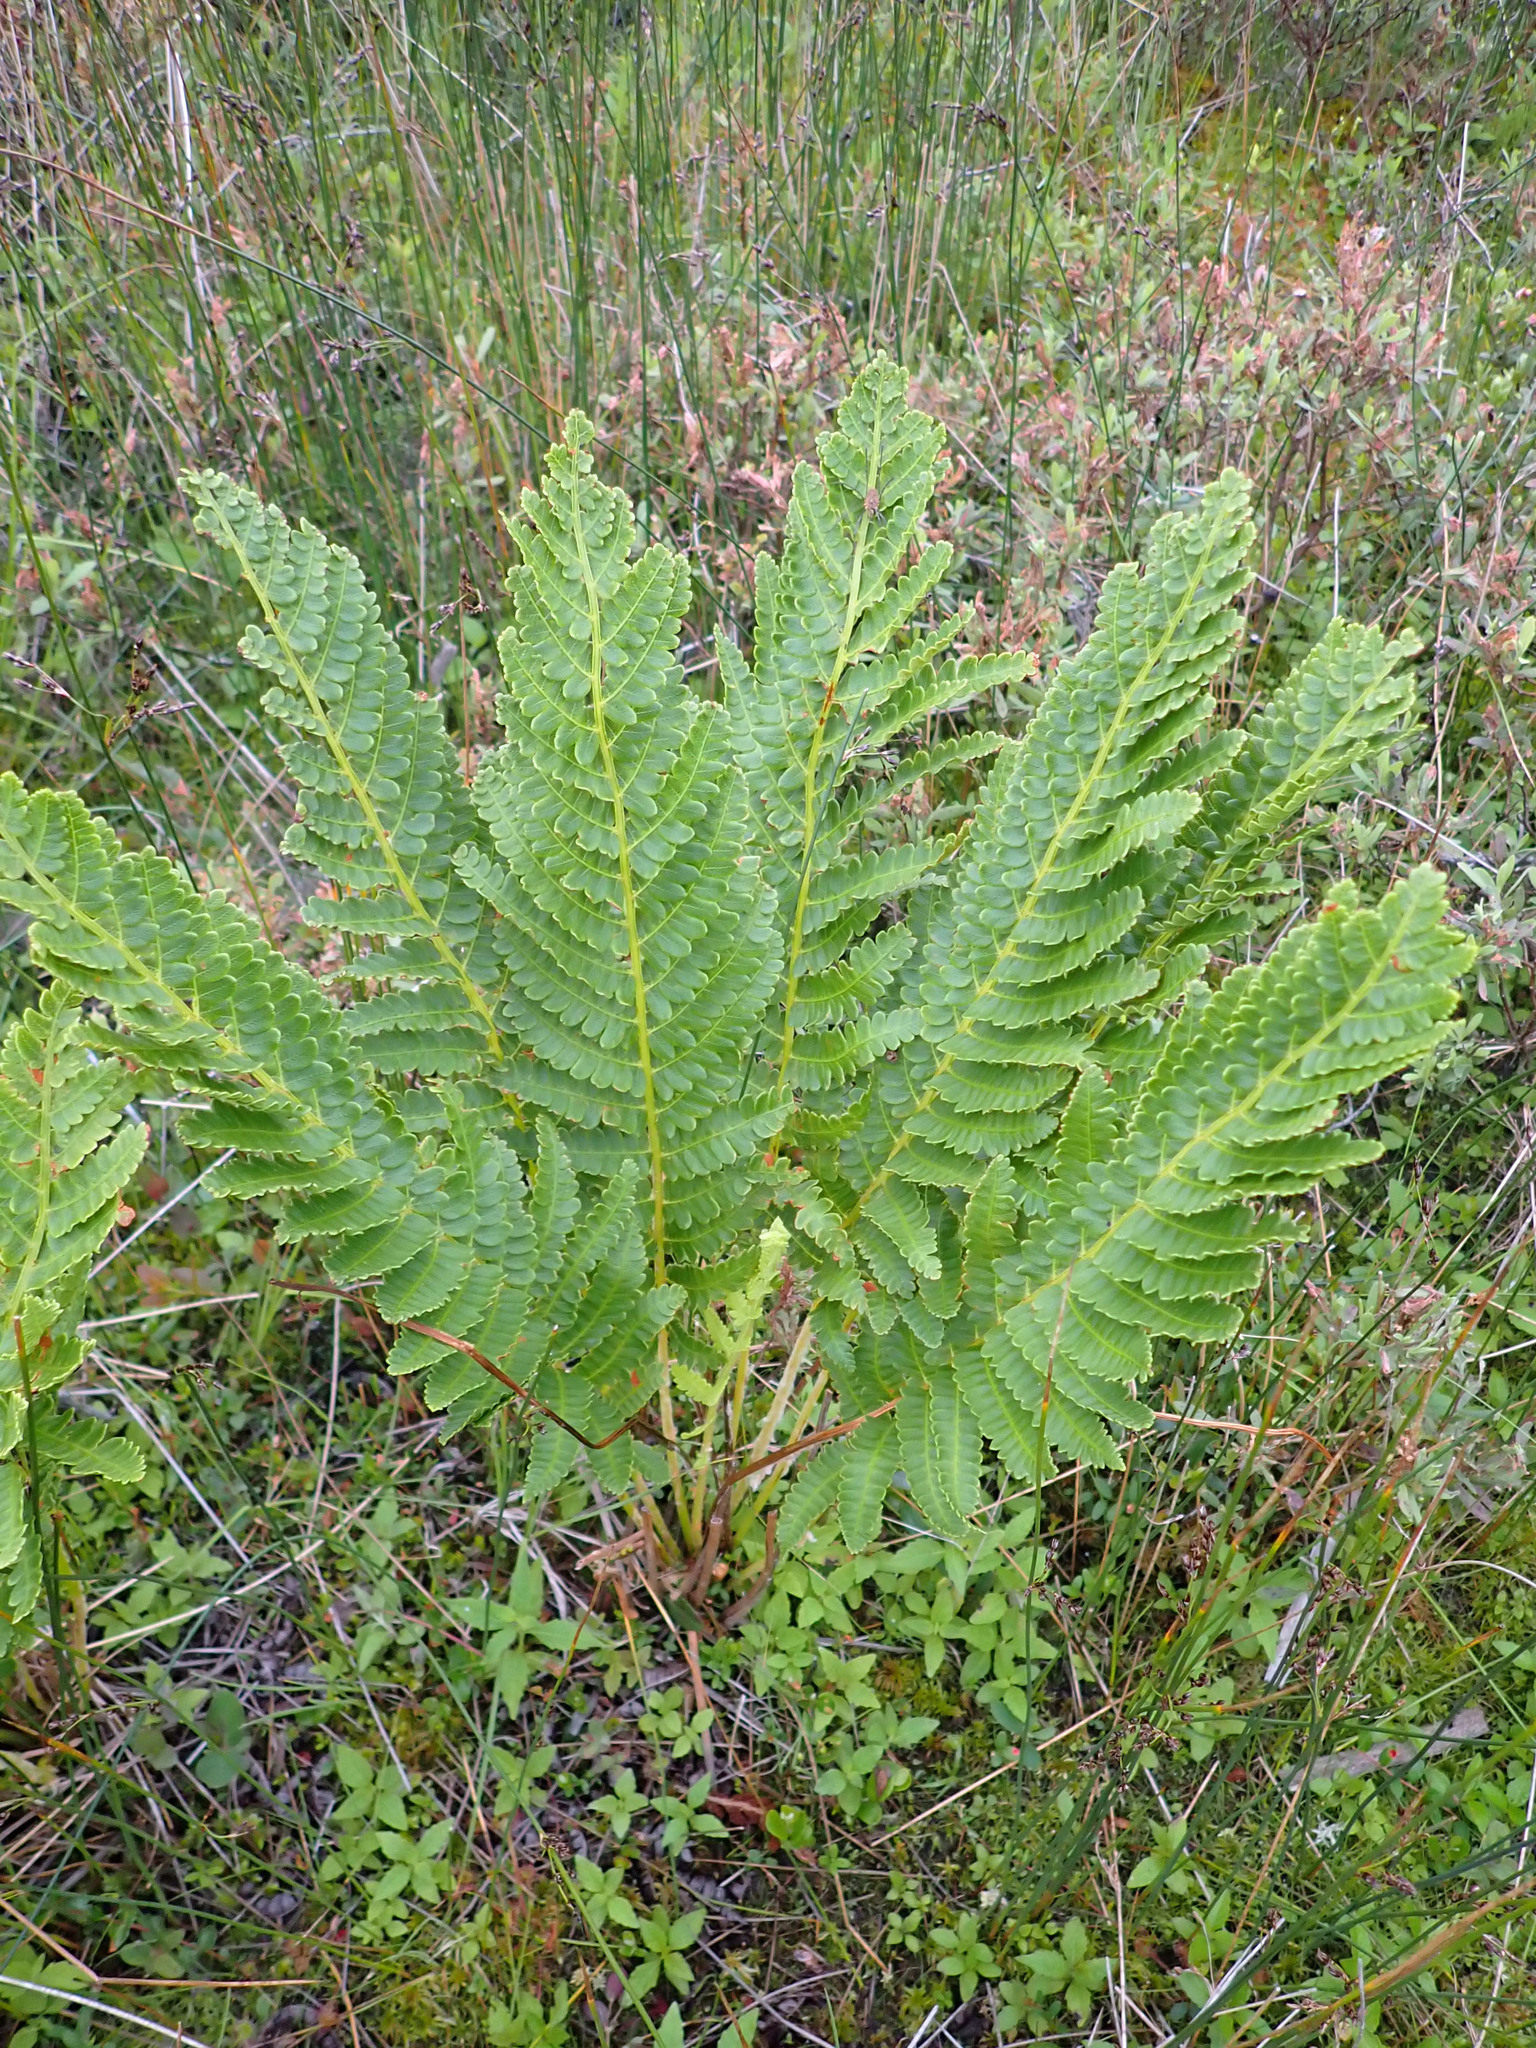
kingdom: Plantae
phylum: Tracheophyta
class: Polypodiopsida
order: Osmundales
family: Osmundaceae
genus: Osmundastrum
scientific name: Osmundastrum cinnamomeum
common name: Cinnamon fern
